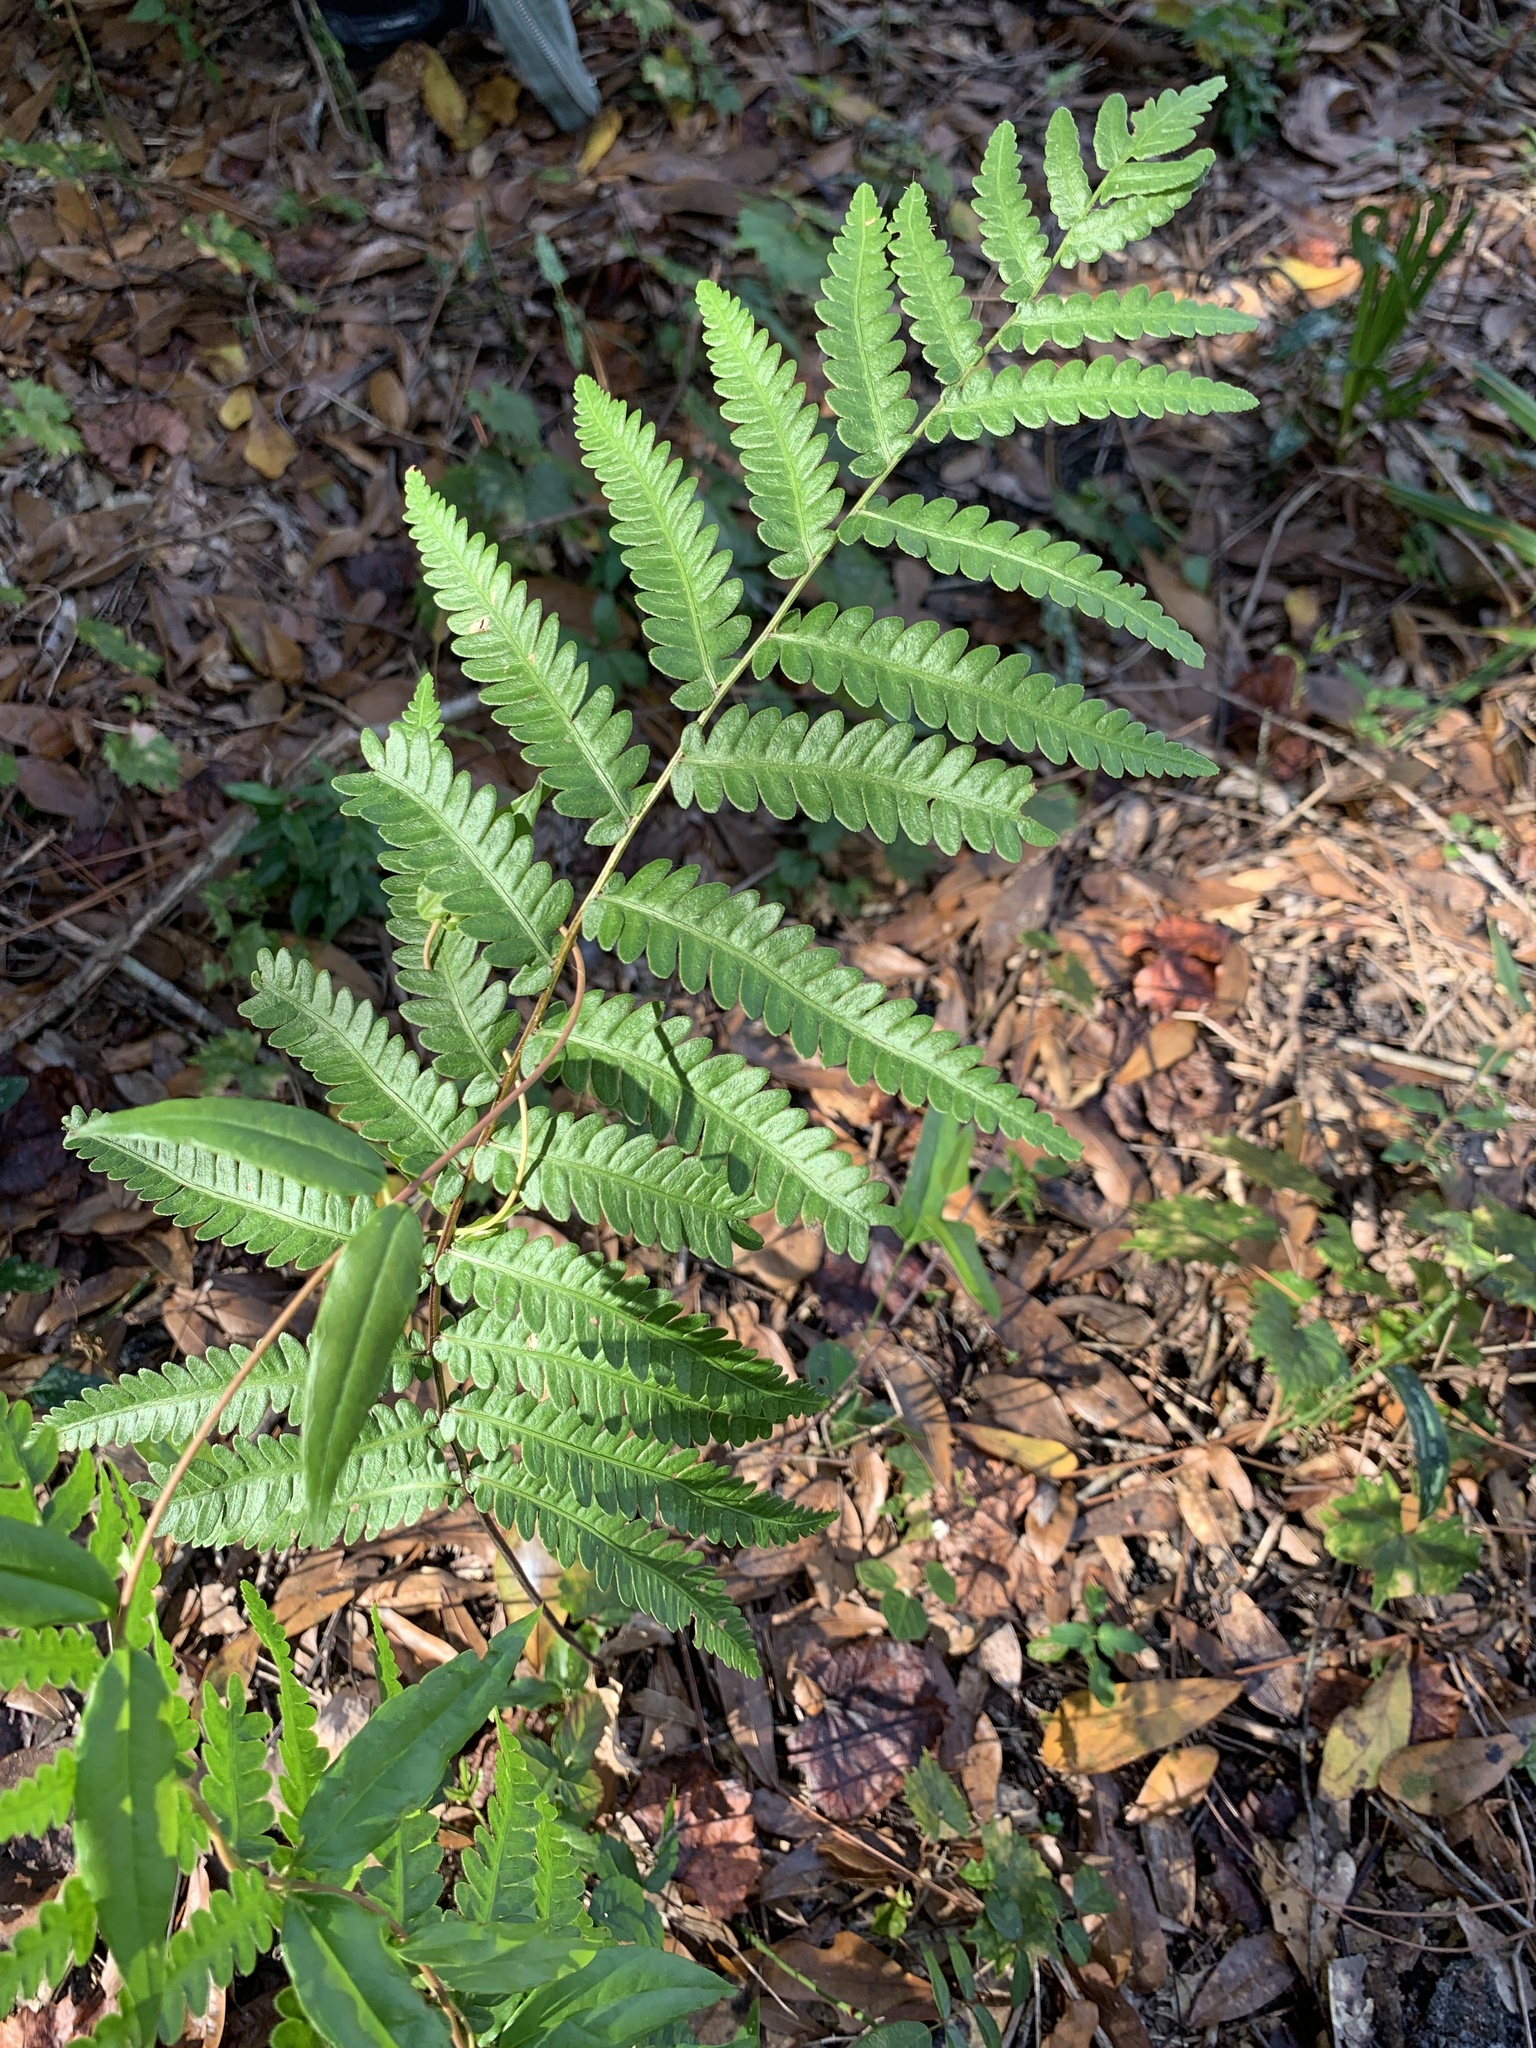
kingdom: Plantae
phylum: Tracheophyta
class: Polypodiopsida
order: Polypodiales
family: Blechnaceae
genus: Anchistea
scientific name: Anchistea virginica
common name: Virginia chain fern
